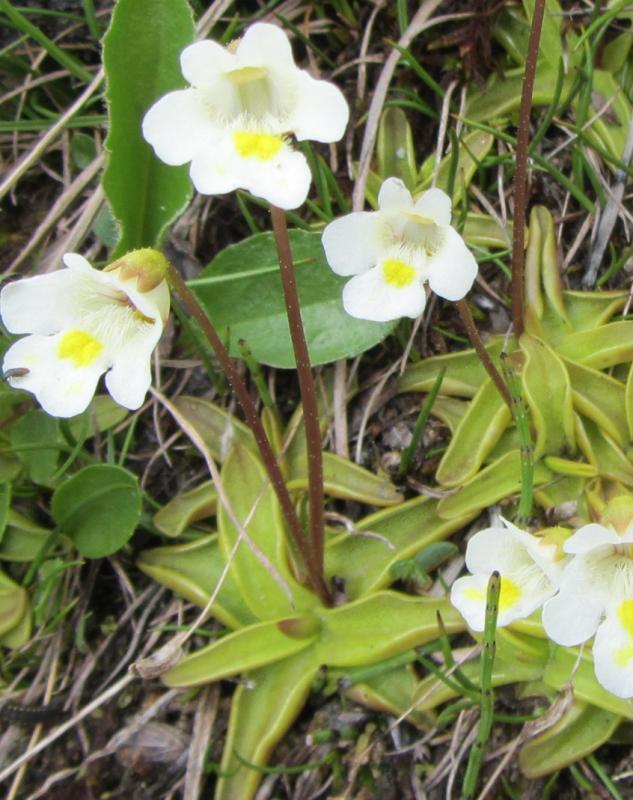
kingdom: Plantae
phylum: Tracheophyta
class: Magnoliopsida
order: Lamiales
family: Lentibulariaceae
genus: Pinguicula
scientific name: Pinguicula alpina
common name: Alpine butterwort
